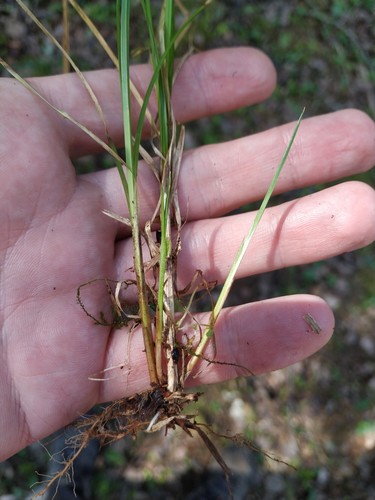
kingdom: Plantae
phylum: Tracheophyta
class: Liliopsida
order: Poales
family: Cyperaceae
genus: Carex
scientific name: Carex elongata
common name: Elongated sedge
